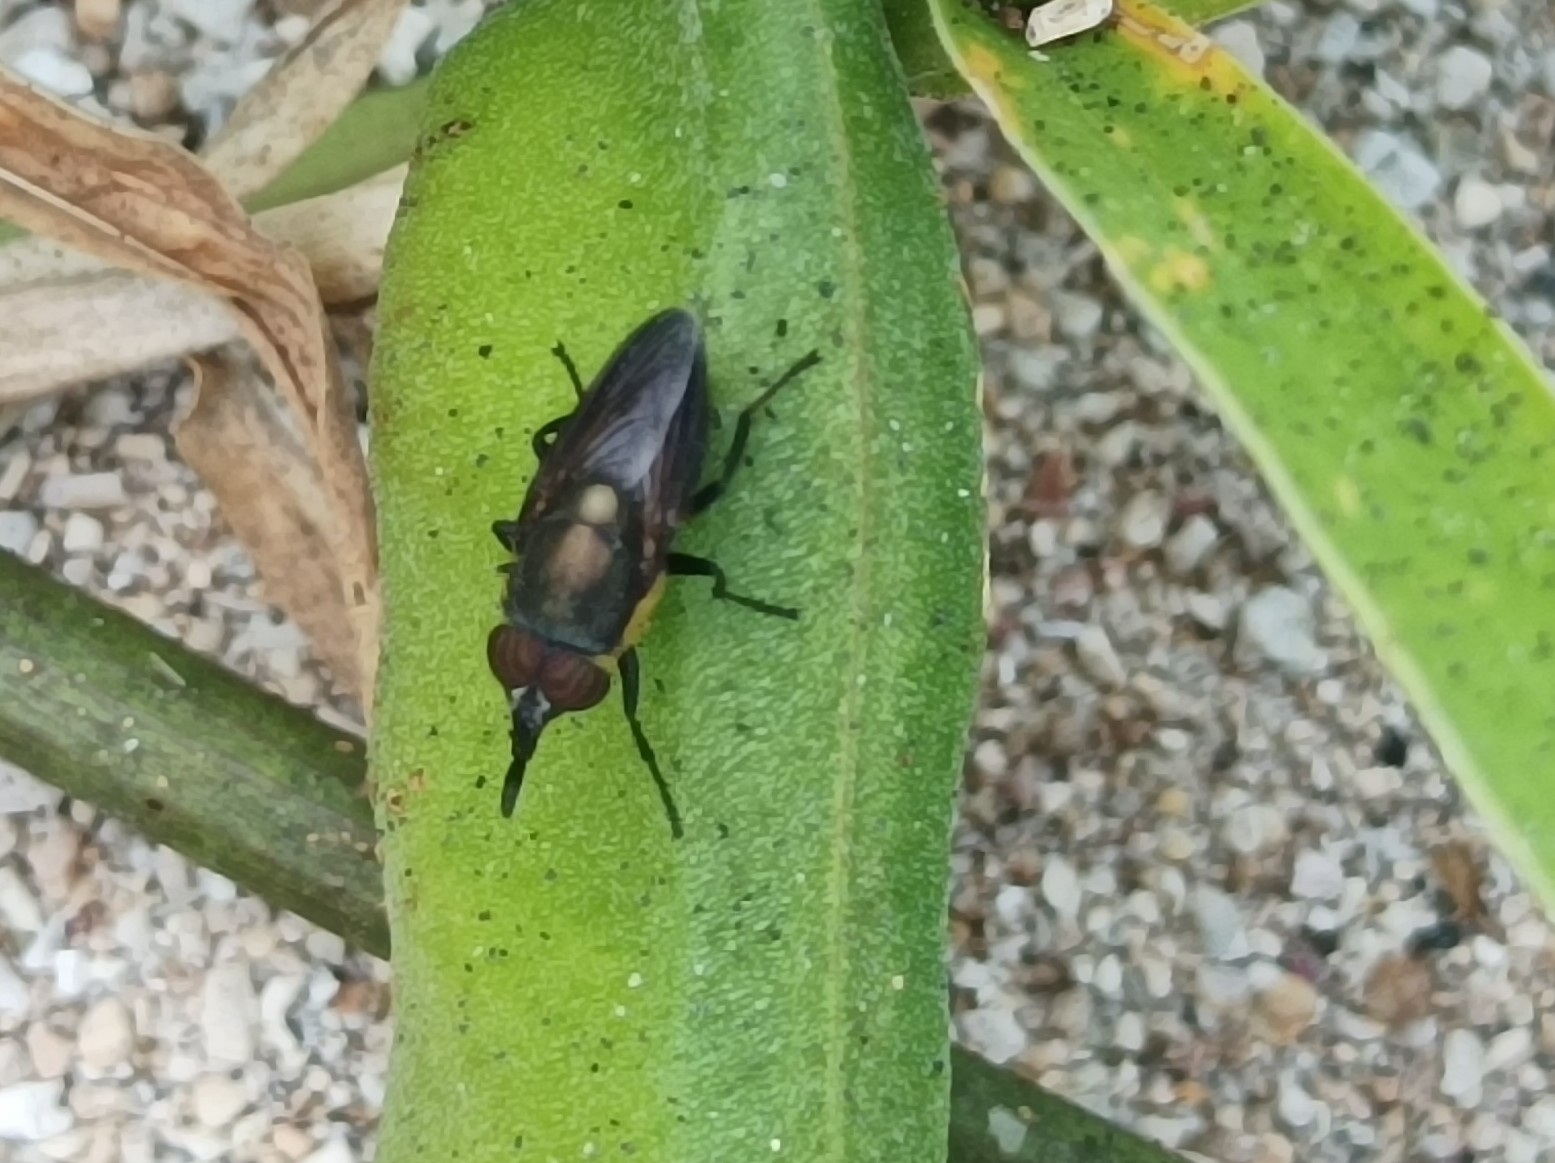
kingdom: Animalia
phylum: Arthropoda
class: Insecta
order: Diptera
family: Calliphoridae
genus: Stomorhina
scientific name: Stomorhina
